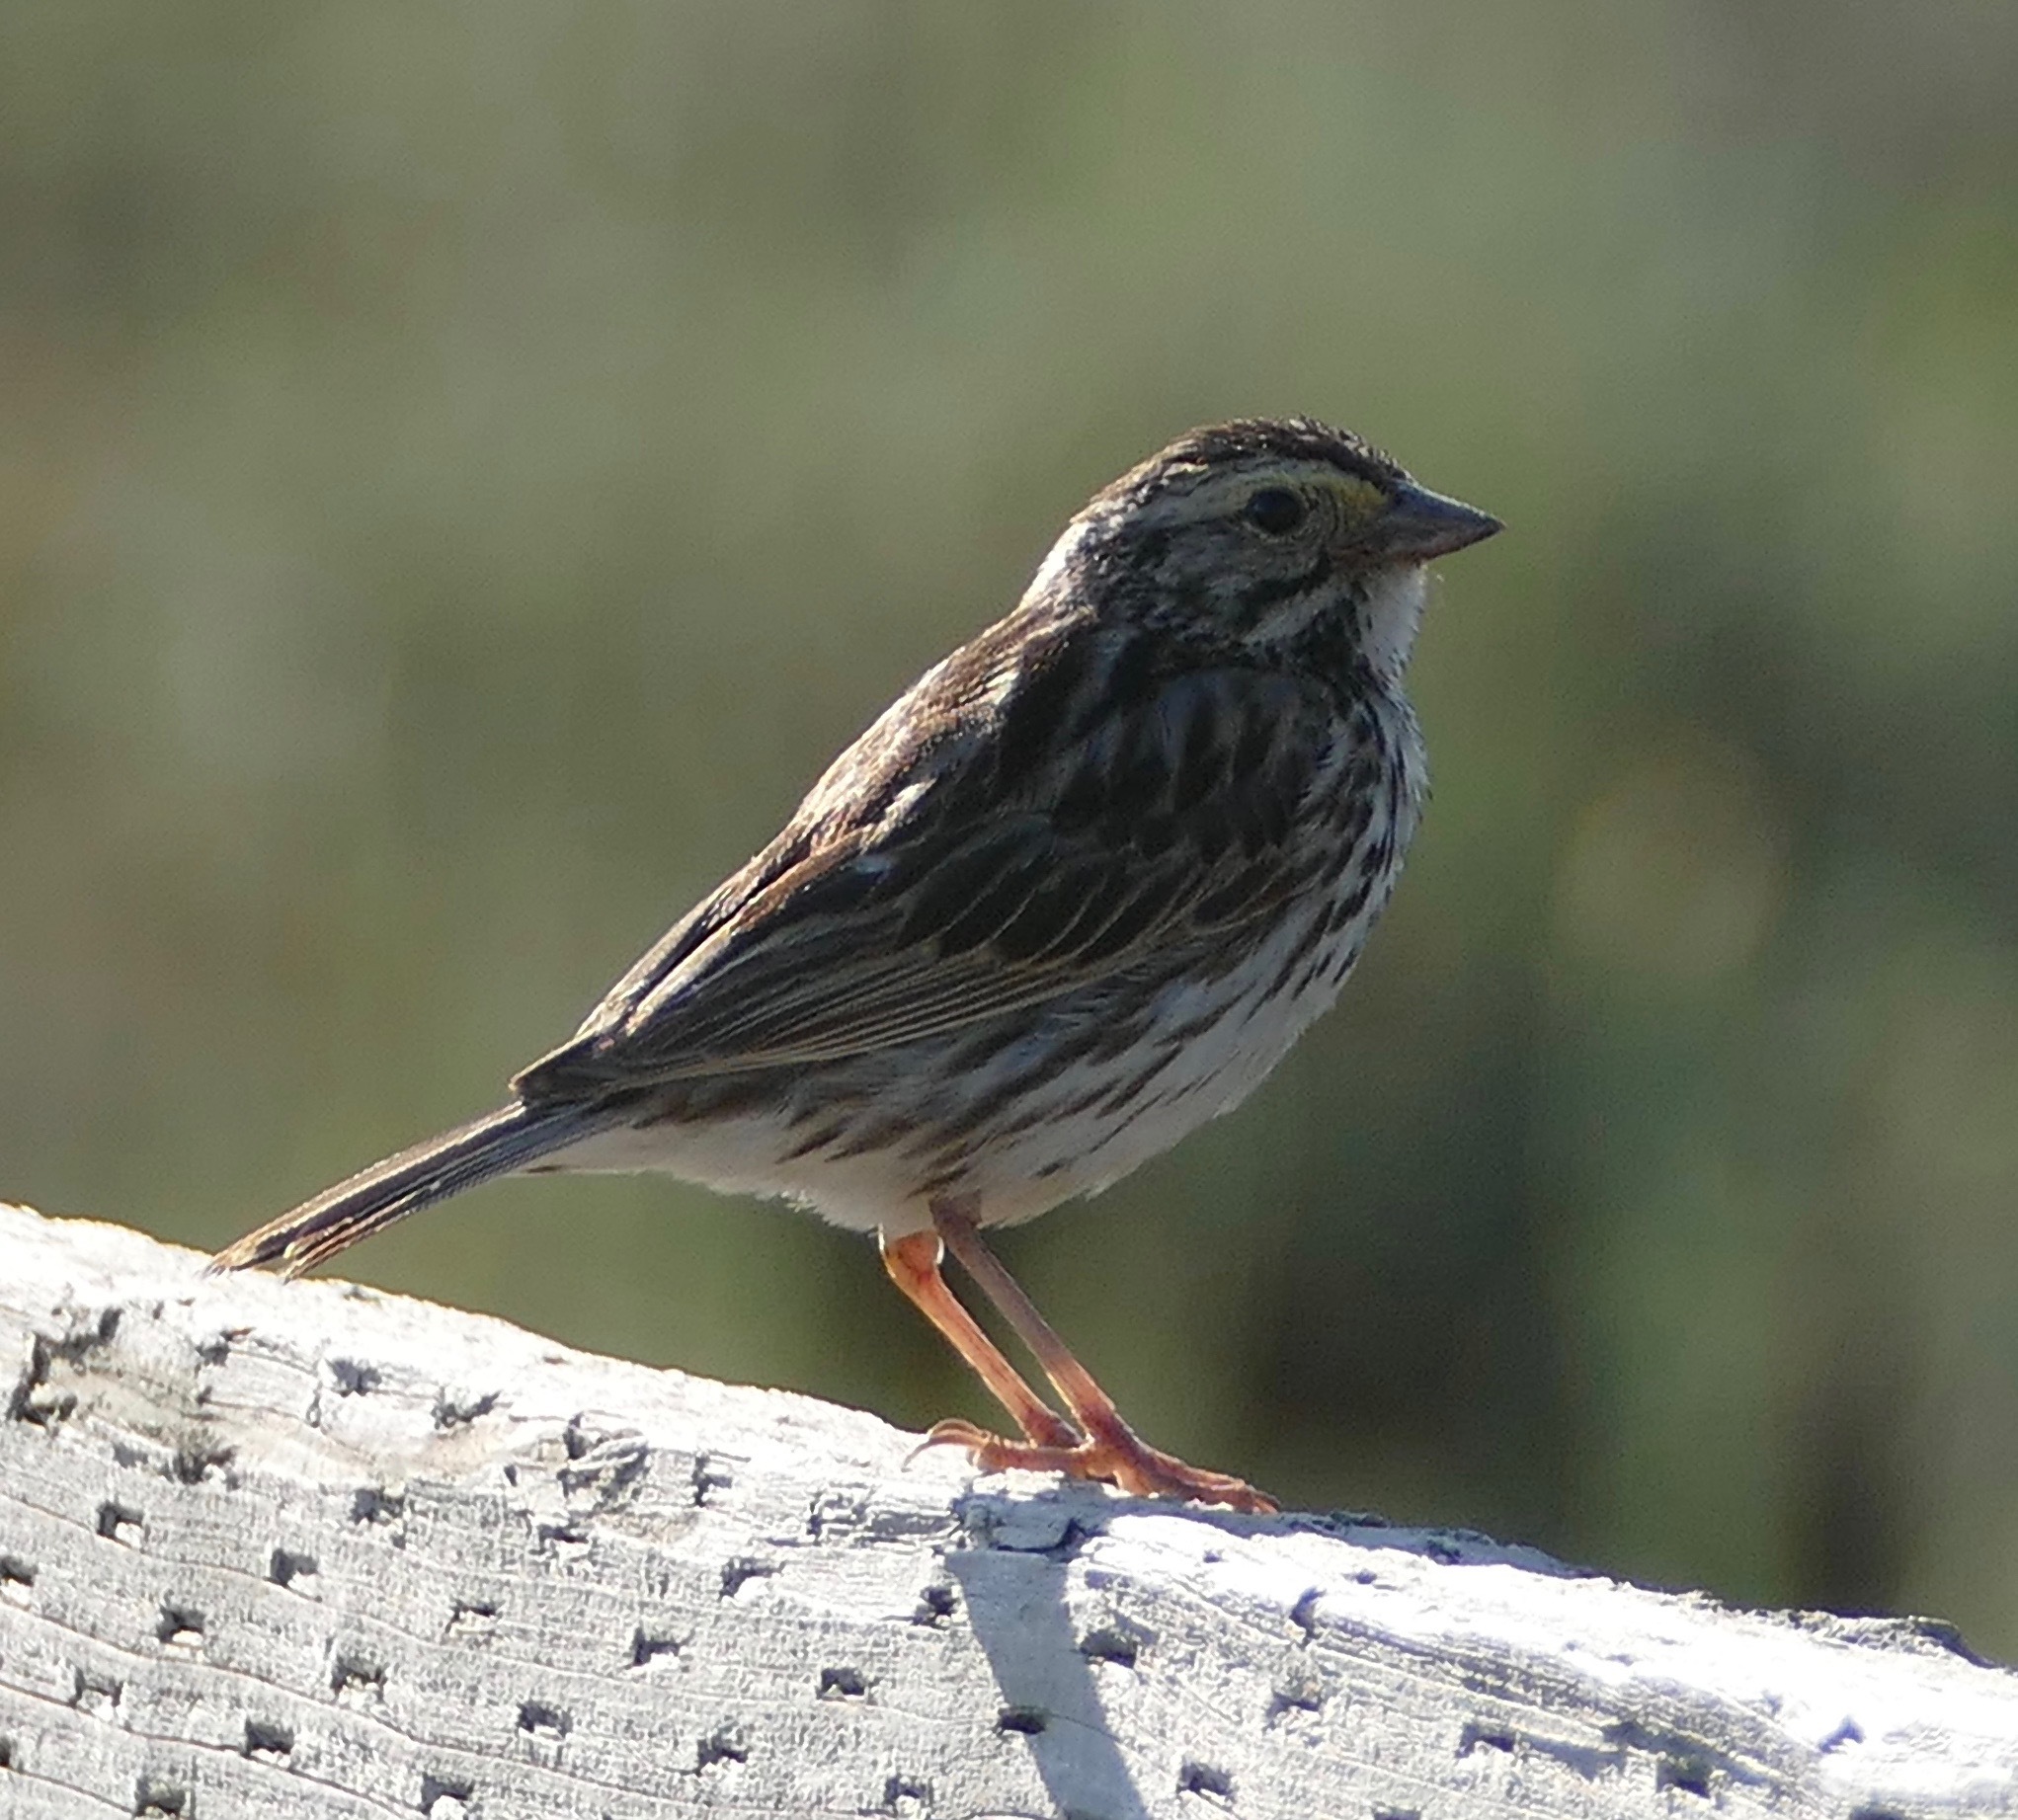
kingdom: Animalia
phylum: Chordata
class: Aves
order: Passeriformes
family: Passerellidae
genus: Passerculus
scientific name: Passerculus sandwichensis
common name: Savannah sparrow
